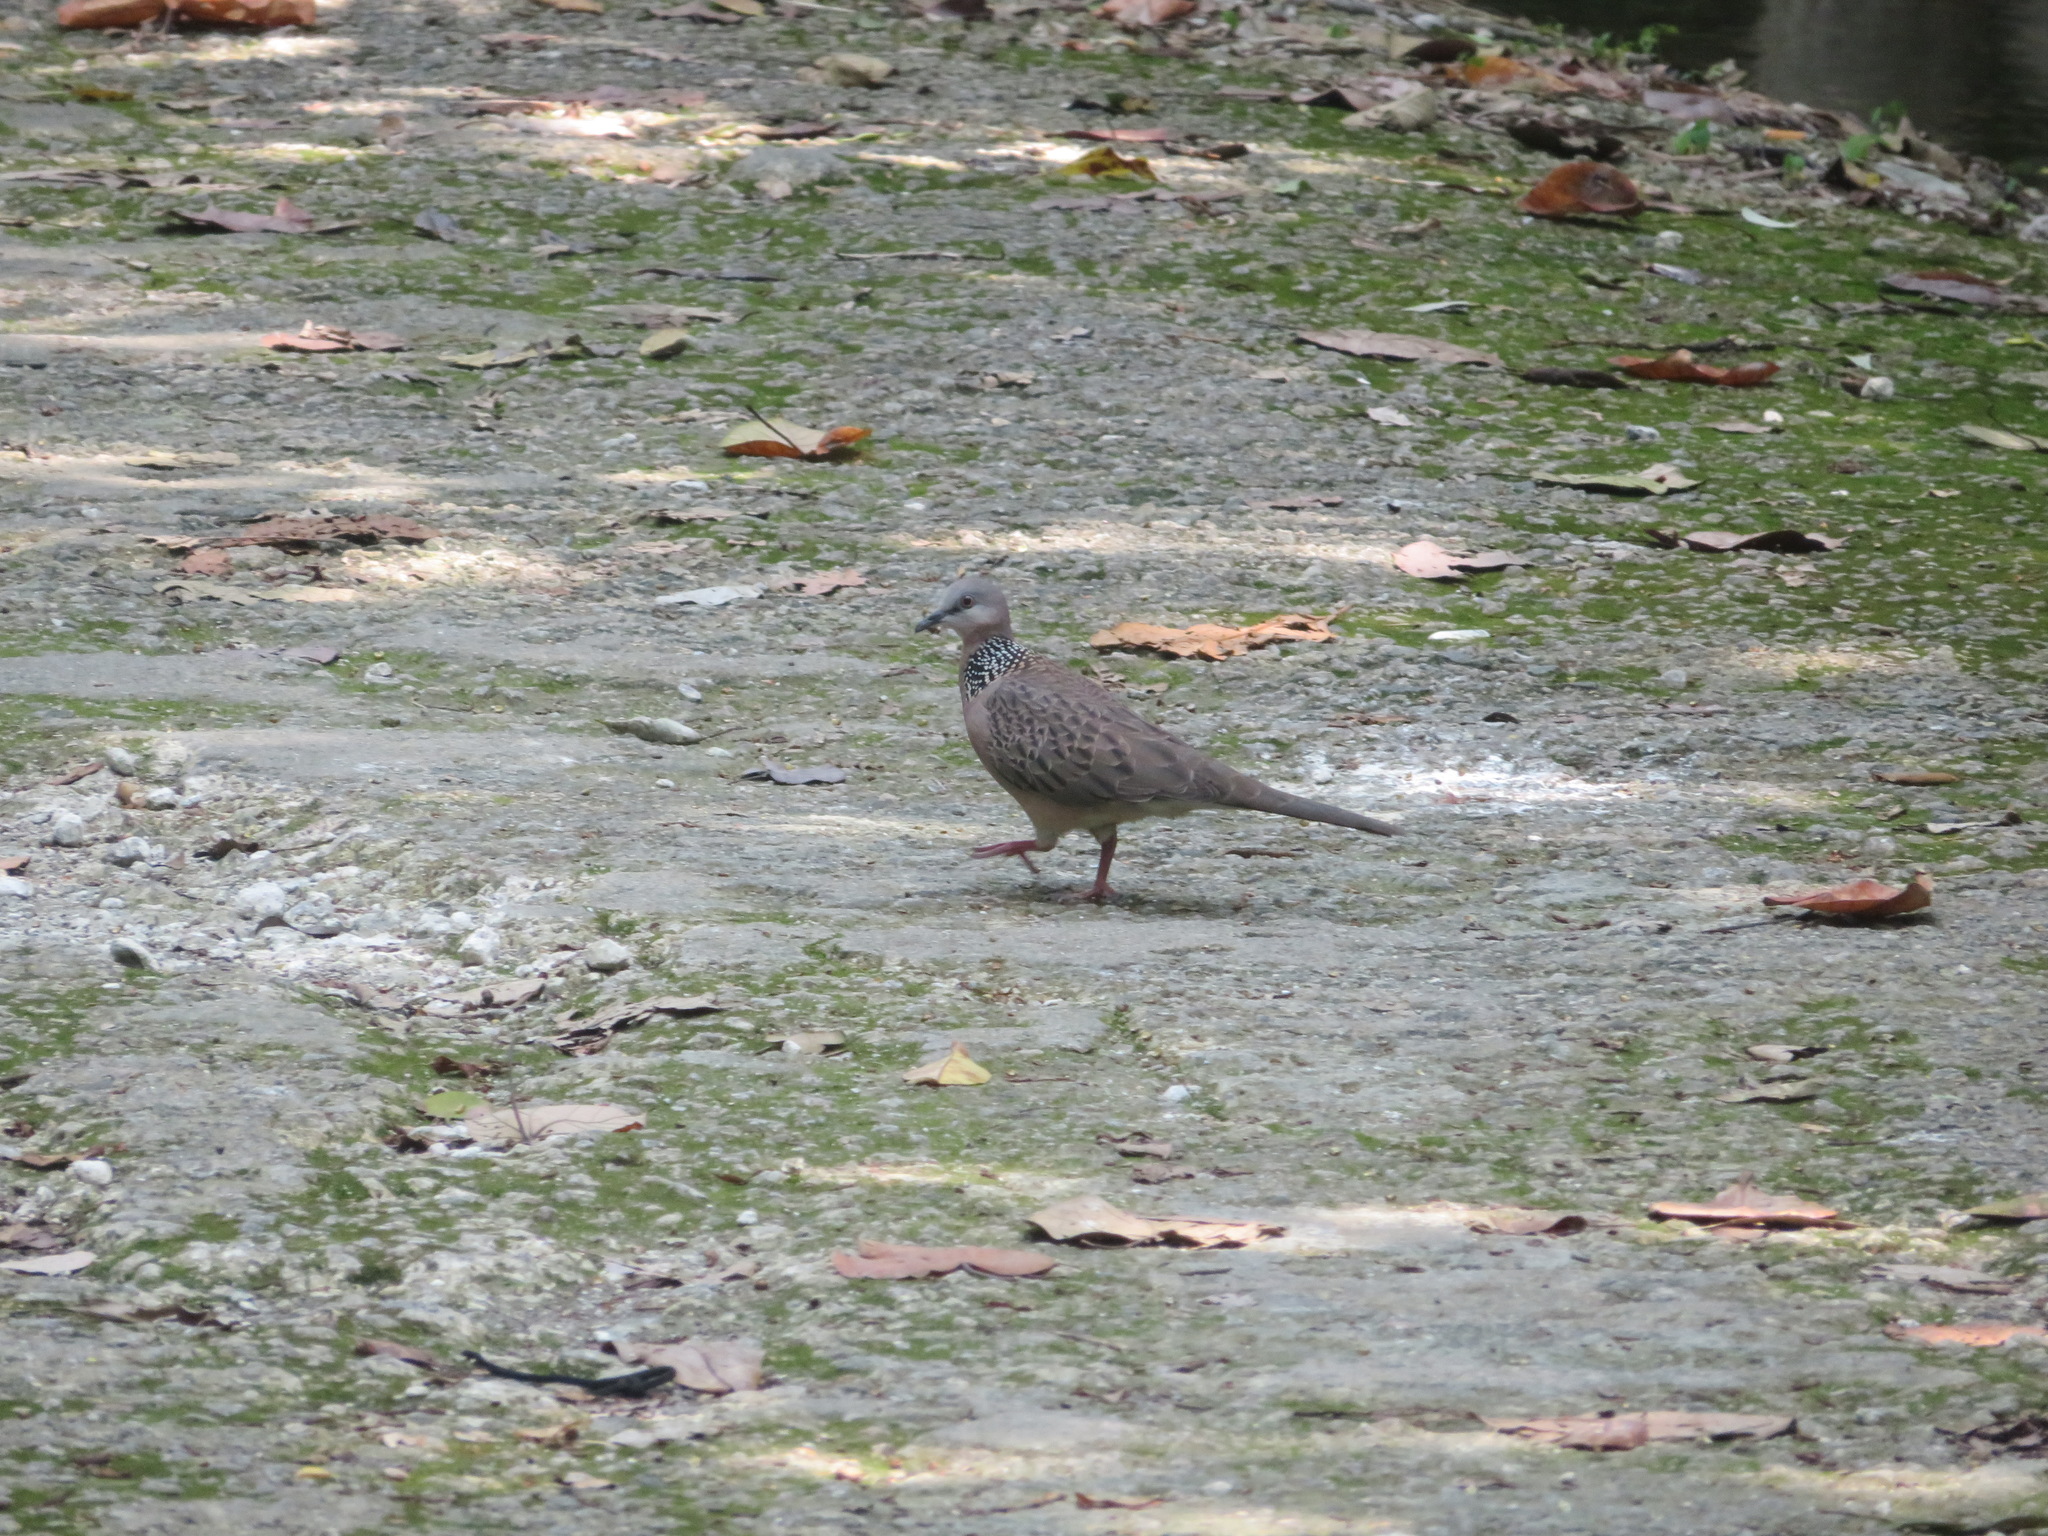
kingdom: Animalia
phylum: Chordata
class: Aves
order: Columbiformes
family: Columbidae
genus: Spilopelia
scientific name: Spilopelia chinensis
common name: Spotted dove
